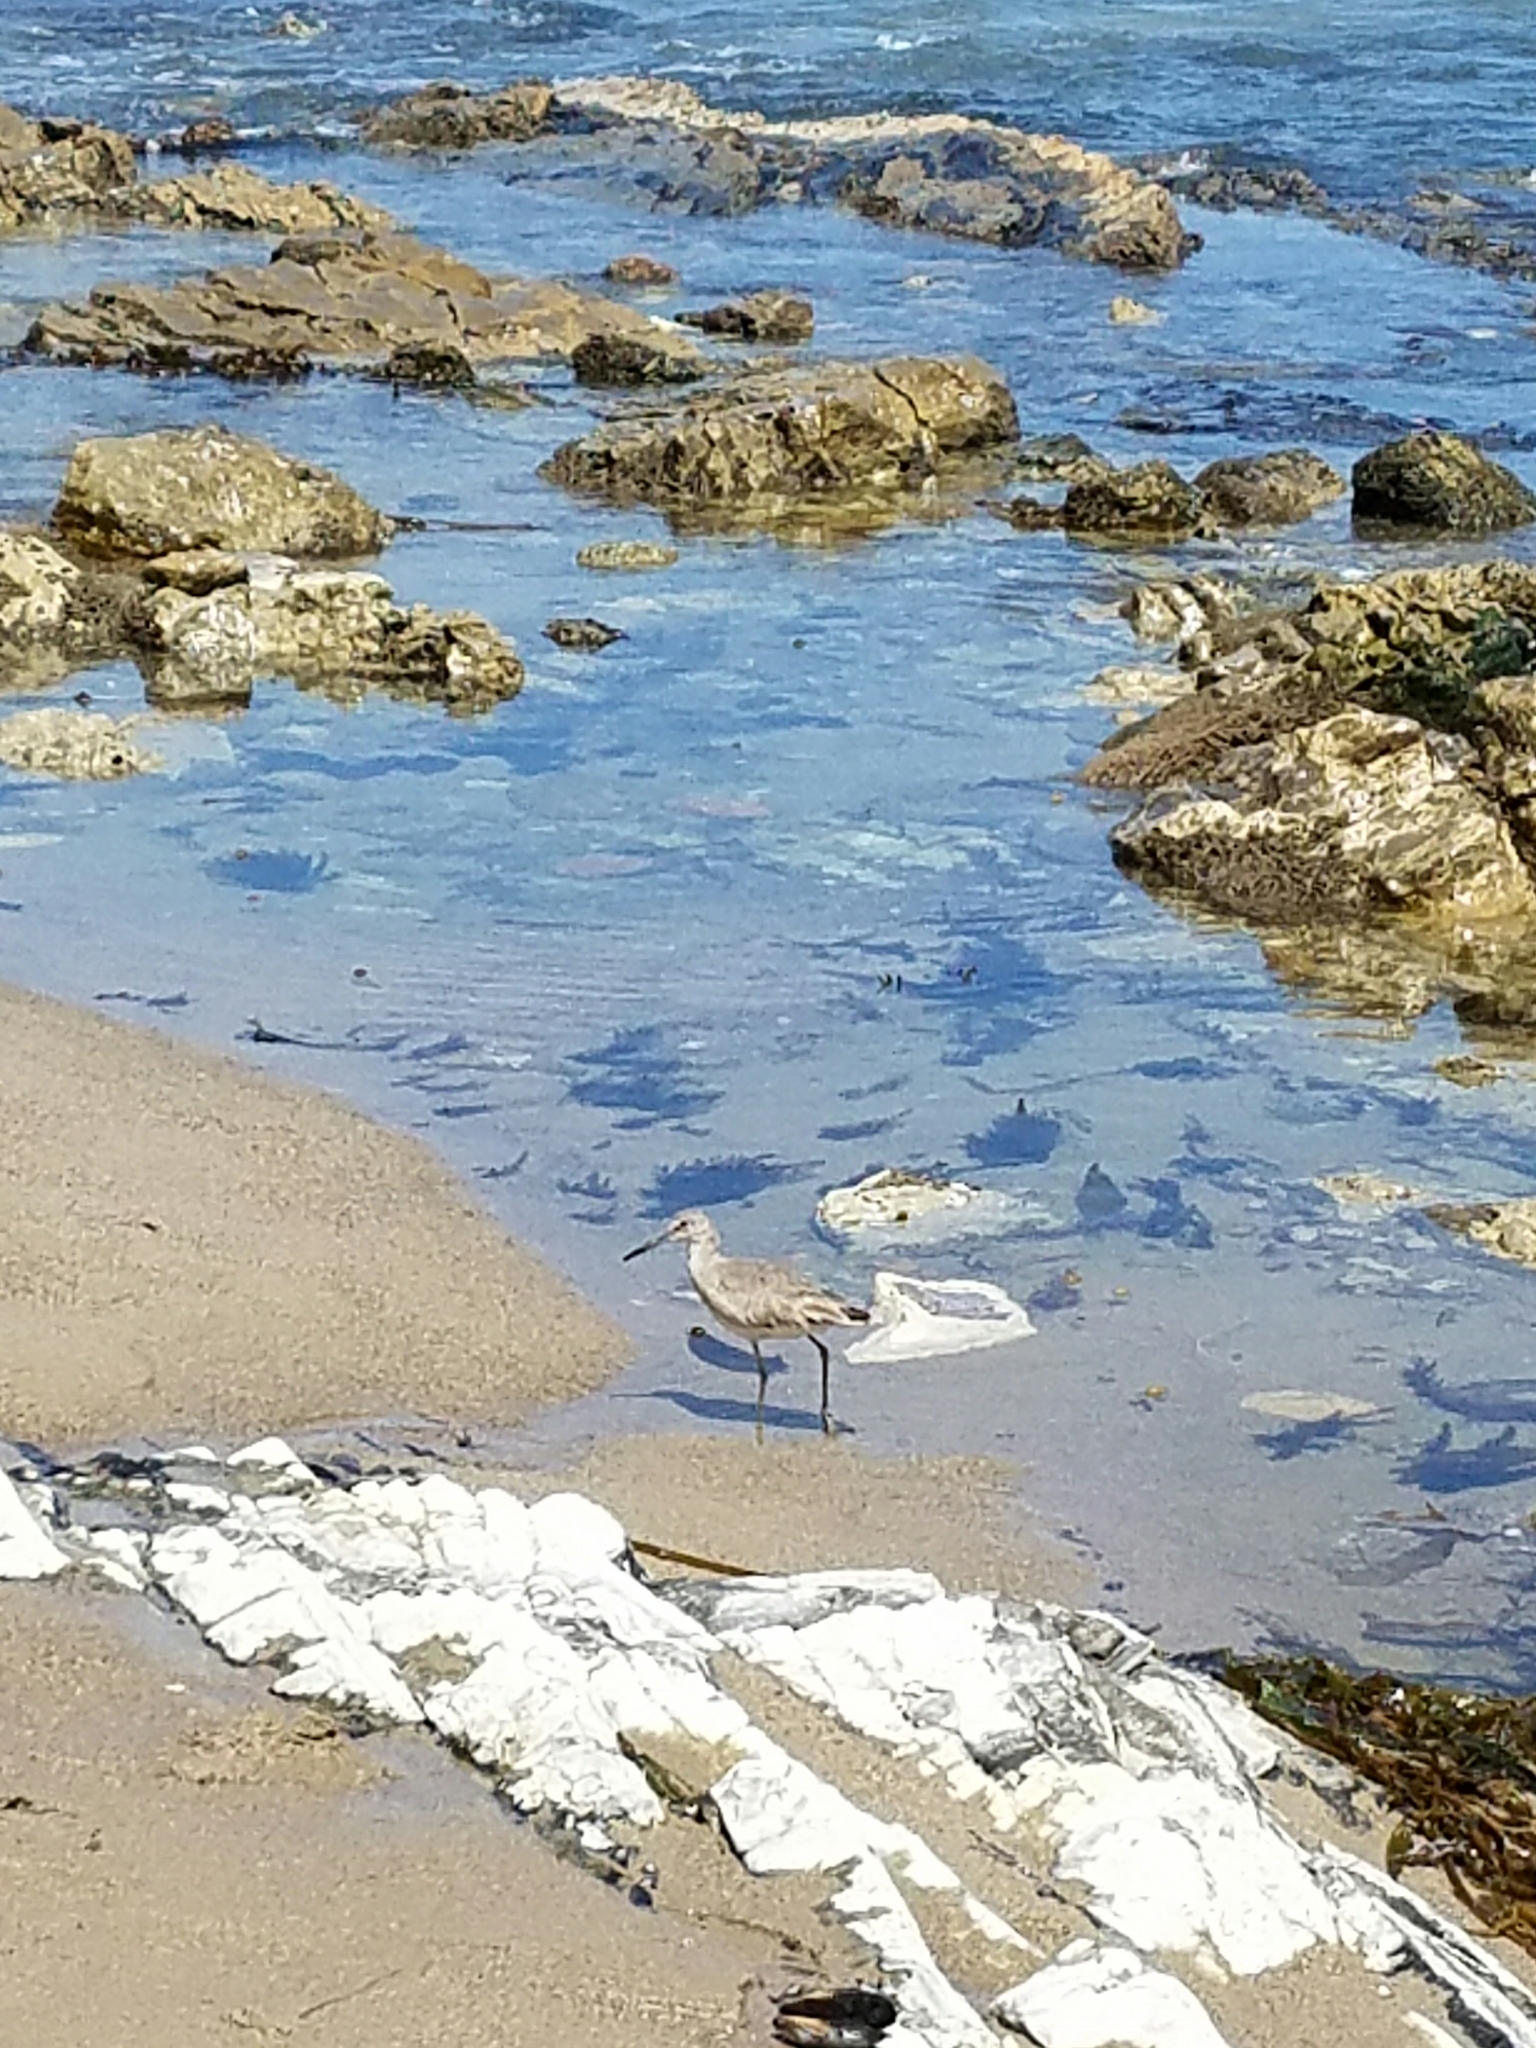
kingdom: Animalia
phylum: Chordata
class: Aves
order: Charadriiformes
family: Scolopacidae
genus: Tringa
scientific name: Tringa semipalmata
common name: Willet
